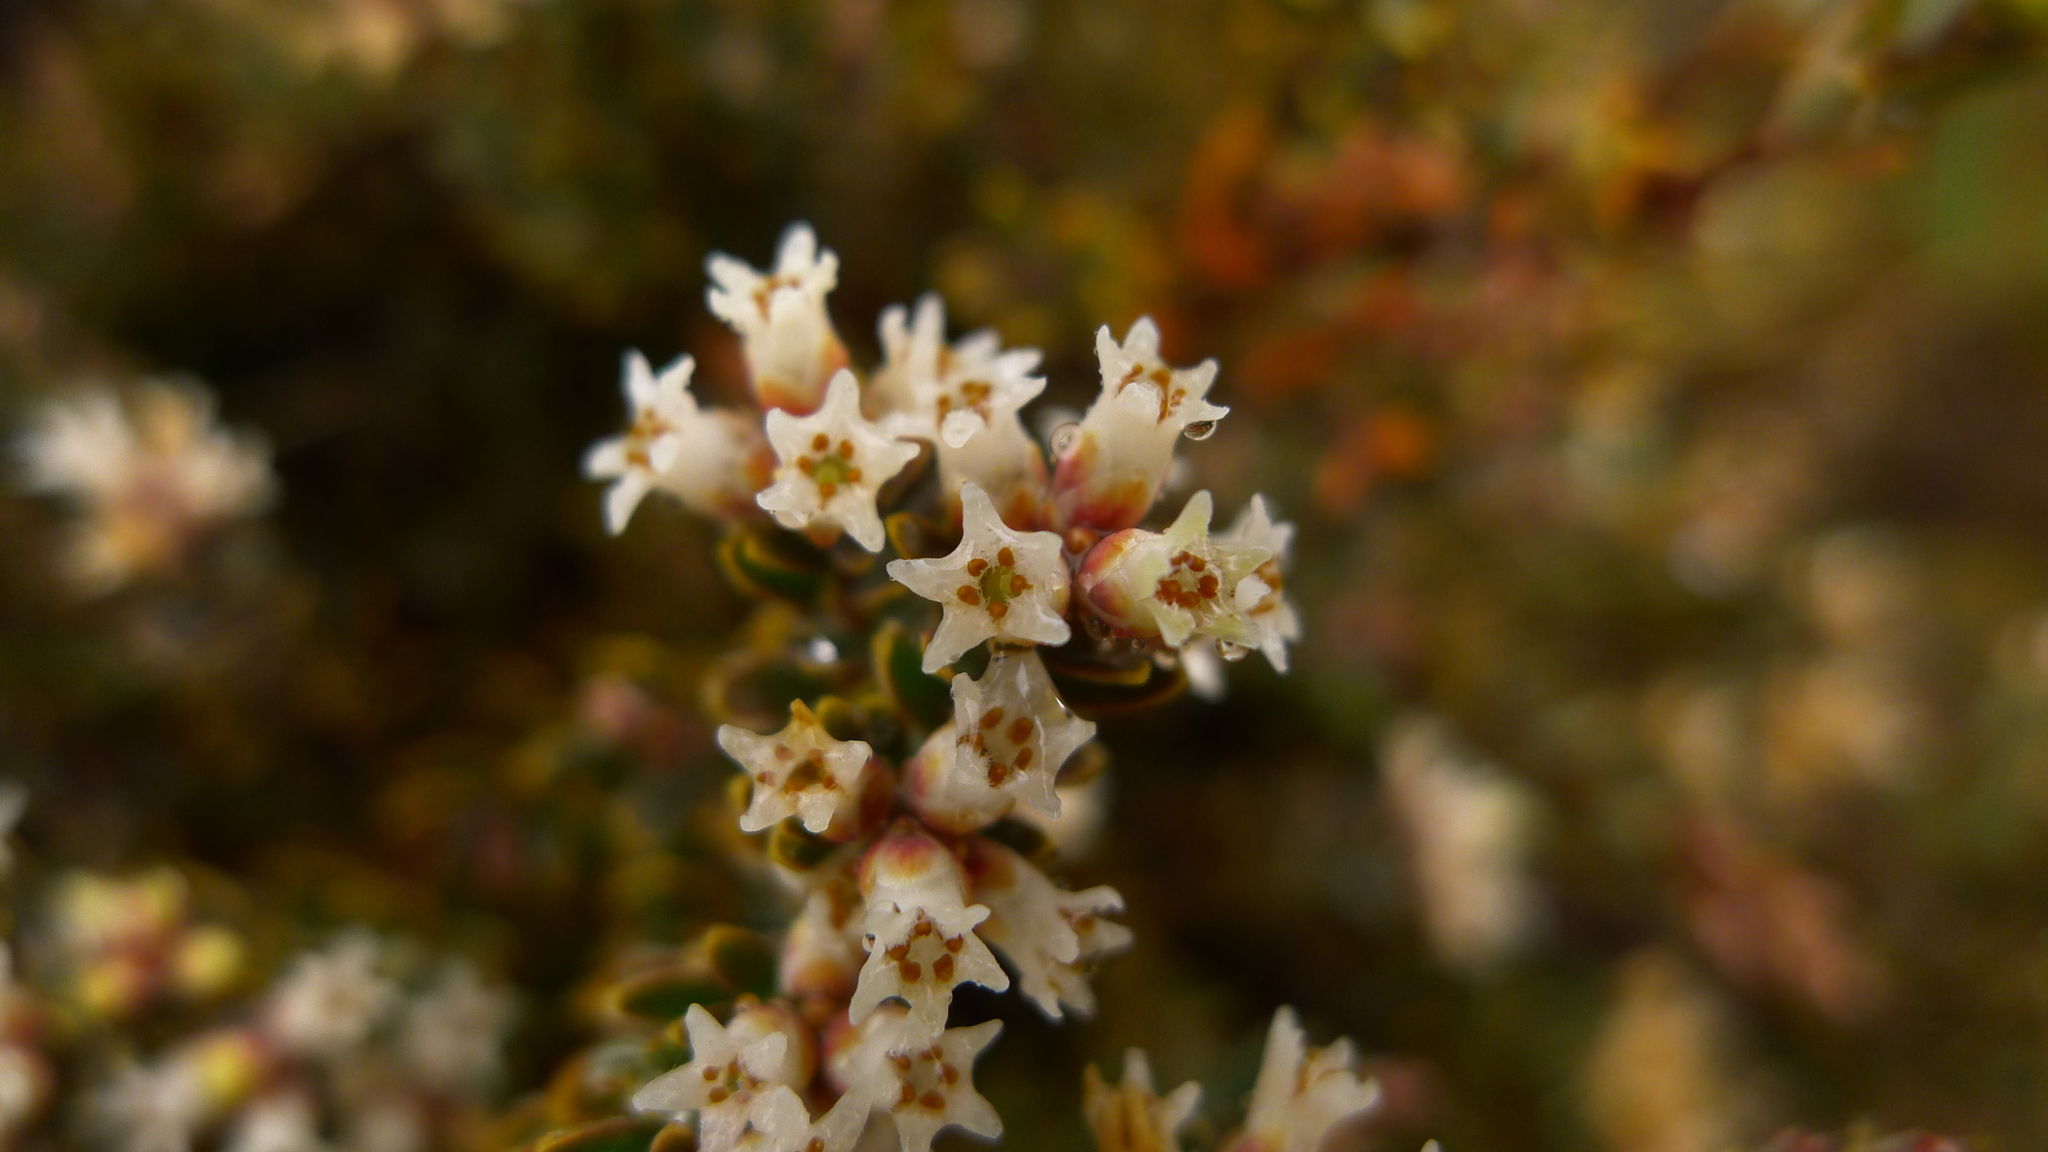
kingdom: Plantae
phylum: Tracheophyta
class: Magnoliopsida
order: Ericales
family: Ericaceae
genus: Acrothamnus
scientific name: Acrothamnus colensoi
